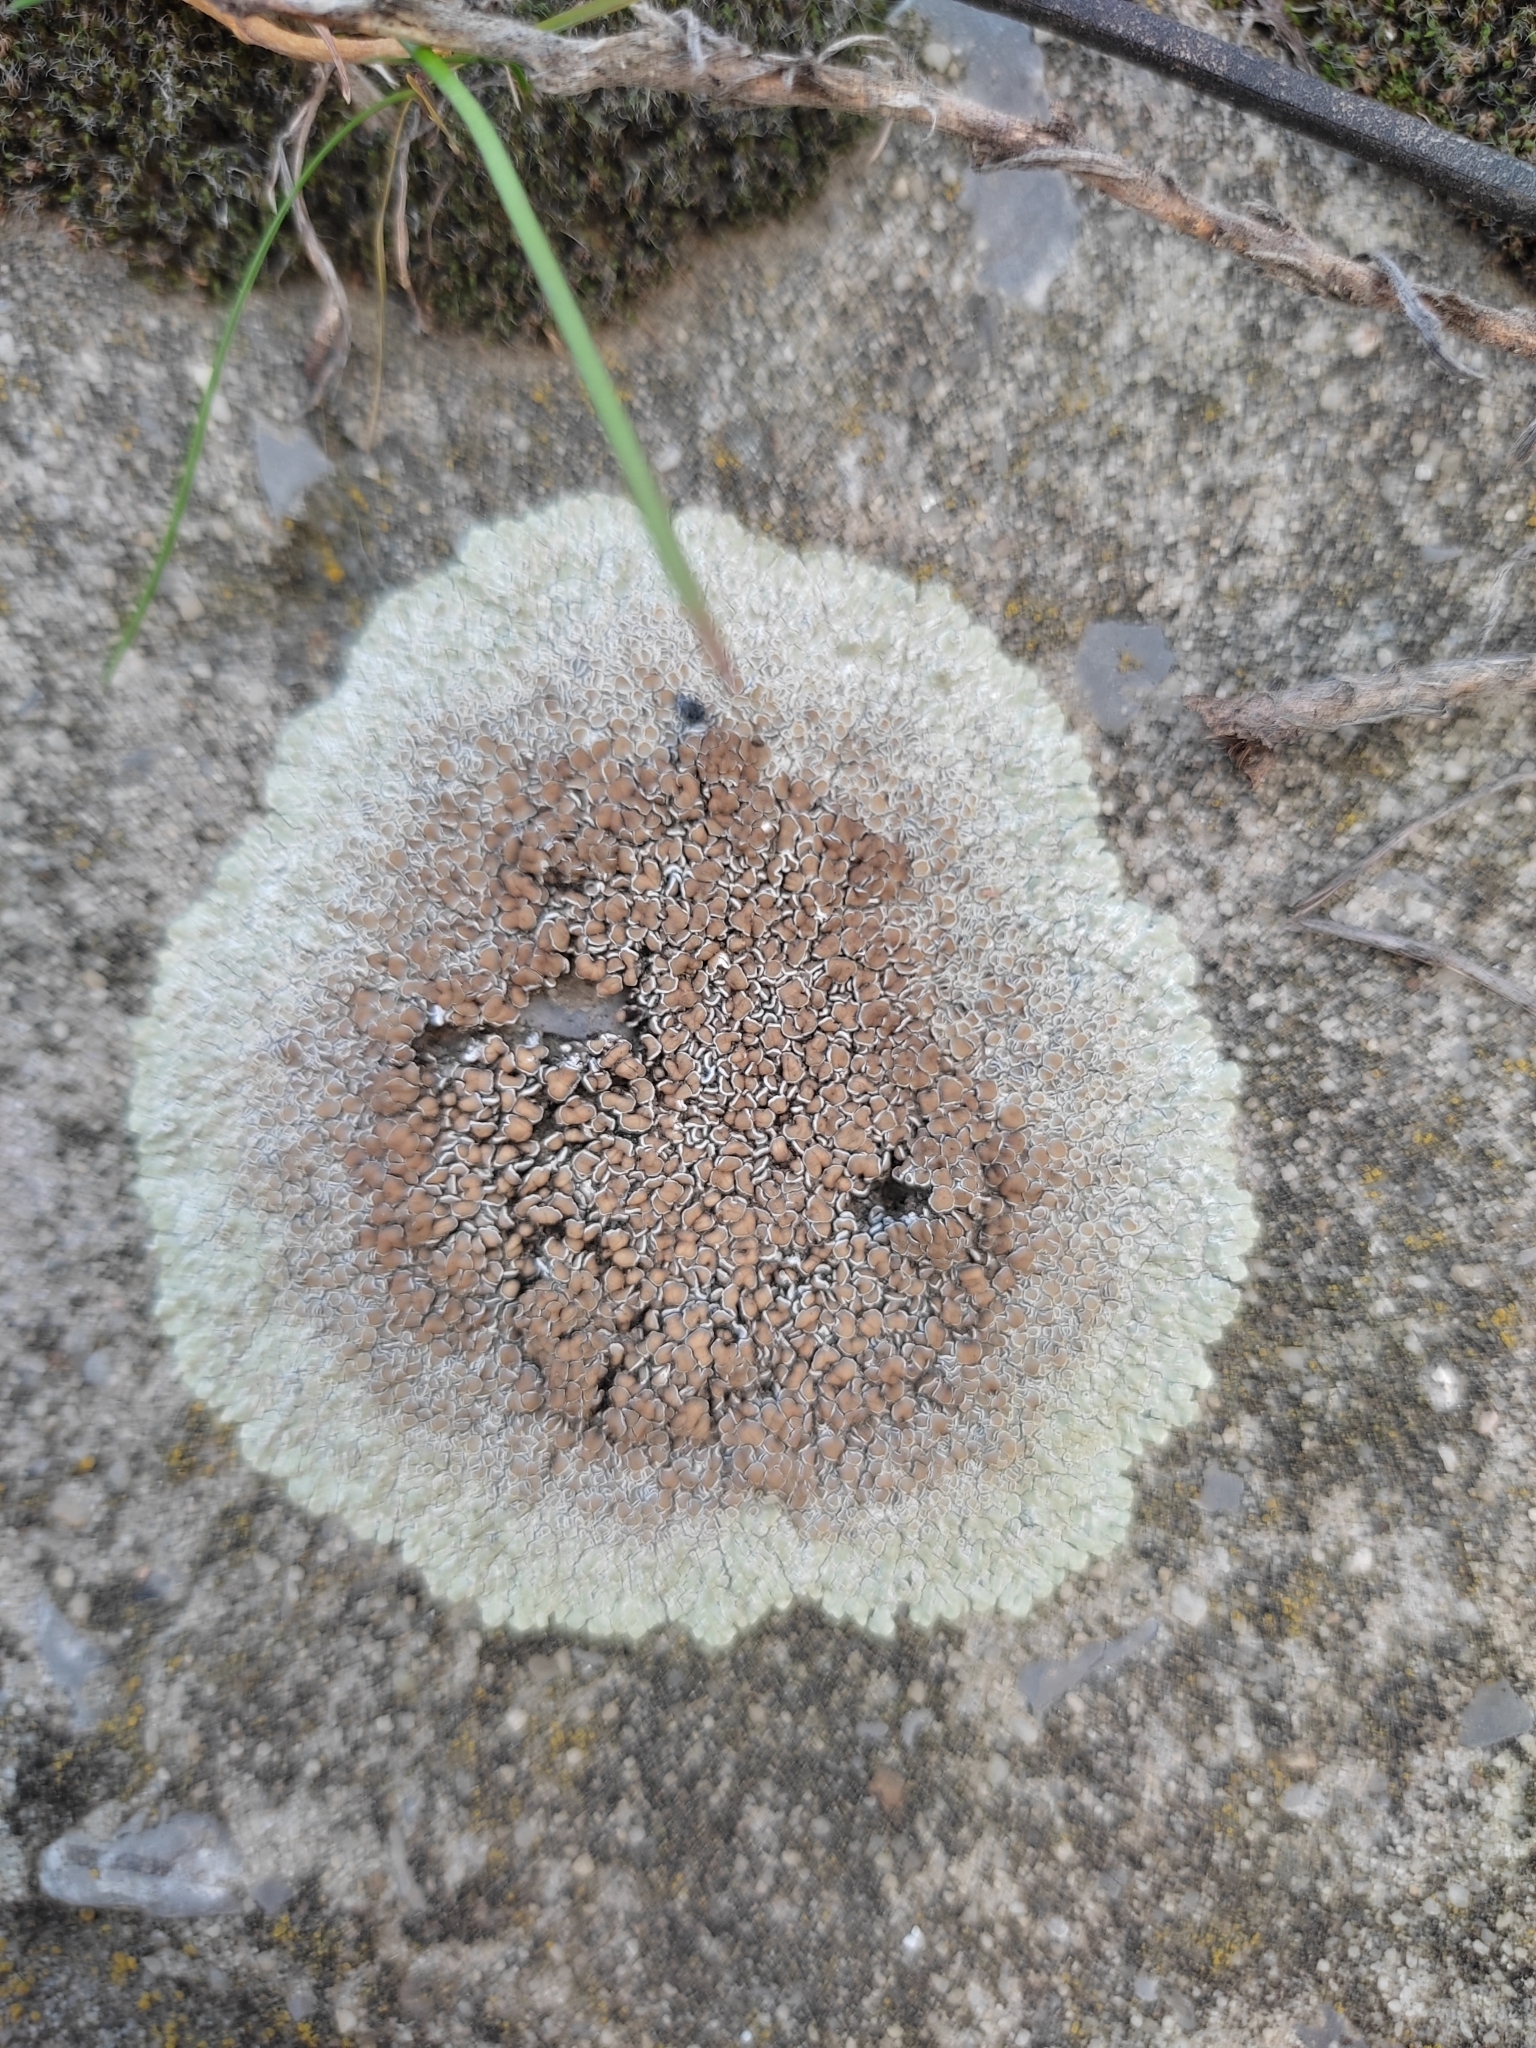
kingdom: Fungi
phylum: Ascomycota
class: Lecanoromycetes
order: Lecanorales
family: Lecanoraceae
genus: Protoparmeliopsis
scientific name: Protoparmeliopsis muralis
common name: Stonewall rim lichen
